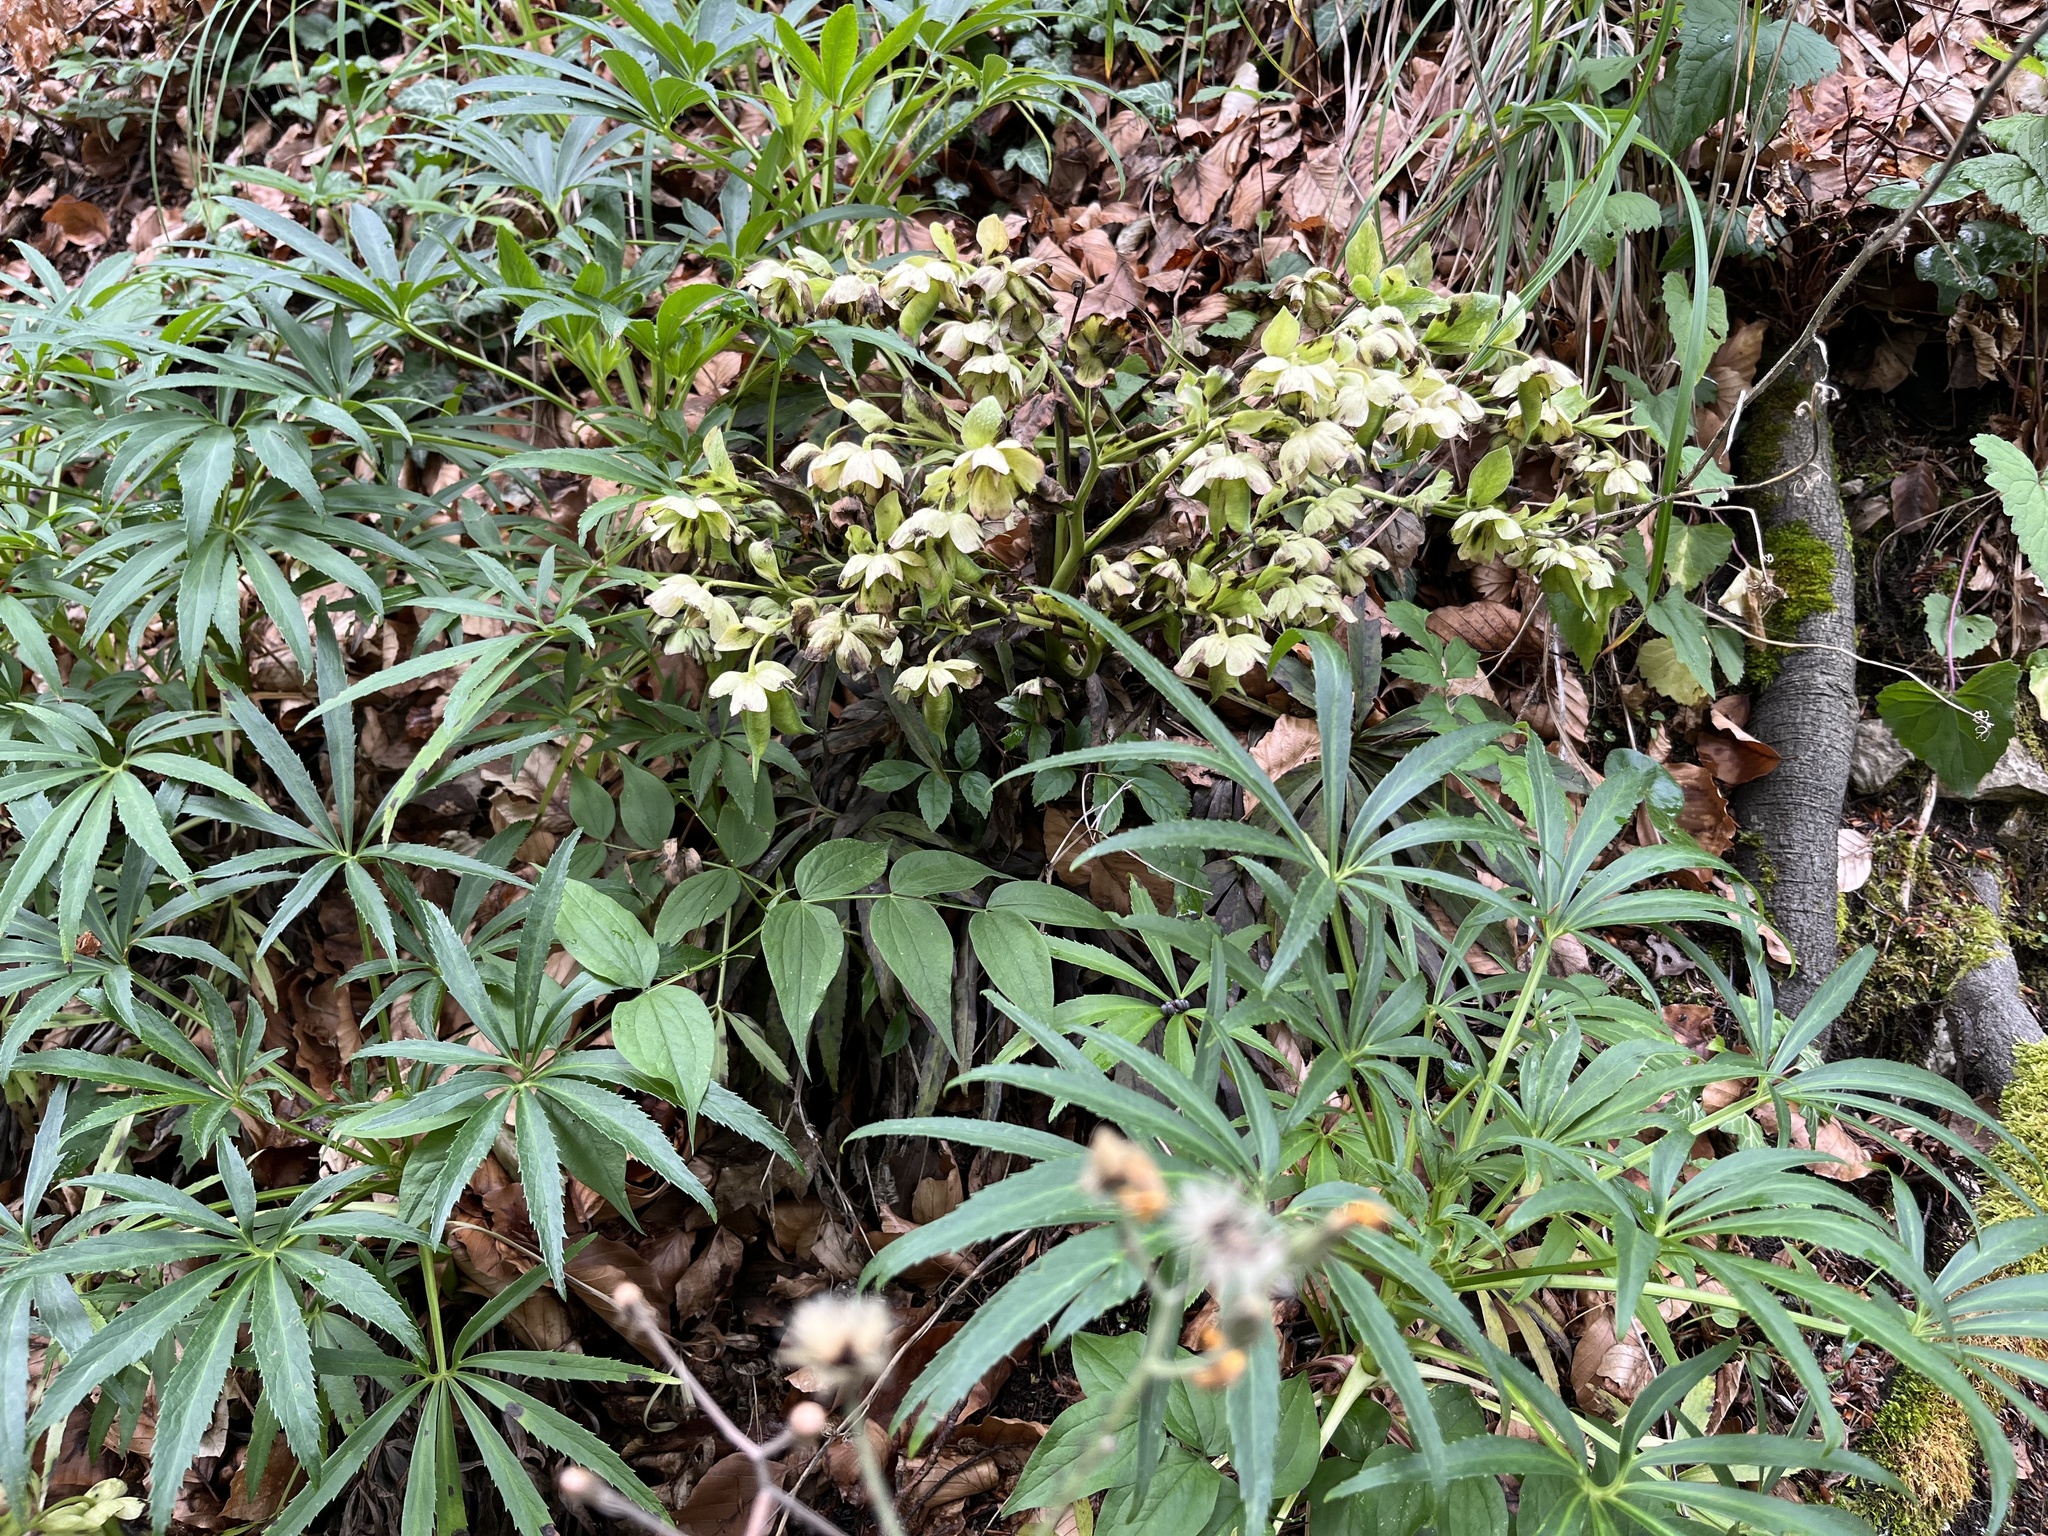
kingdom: Plantae
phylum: Tracheophyta
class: Magnoliopsida
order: Ranunculales
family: Ranunculaceae
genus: Helleborus
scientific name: Helleborus foetidus
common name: Stinking hellebore
